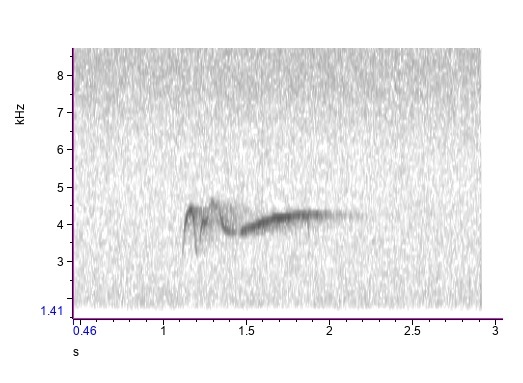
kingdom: Animalia
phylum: Chordata
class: Aves
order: Passeriformes
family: Tyrannidae
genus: Contopus
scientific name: Contopus virens
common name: Eastern wood-pewee
